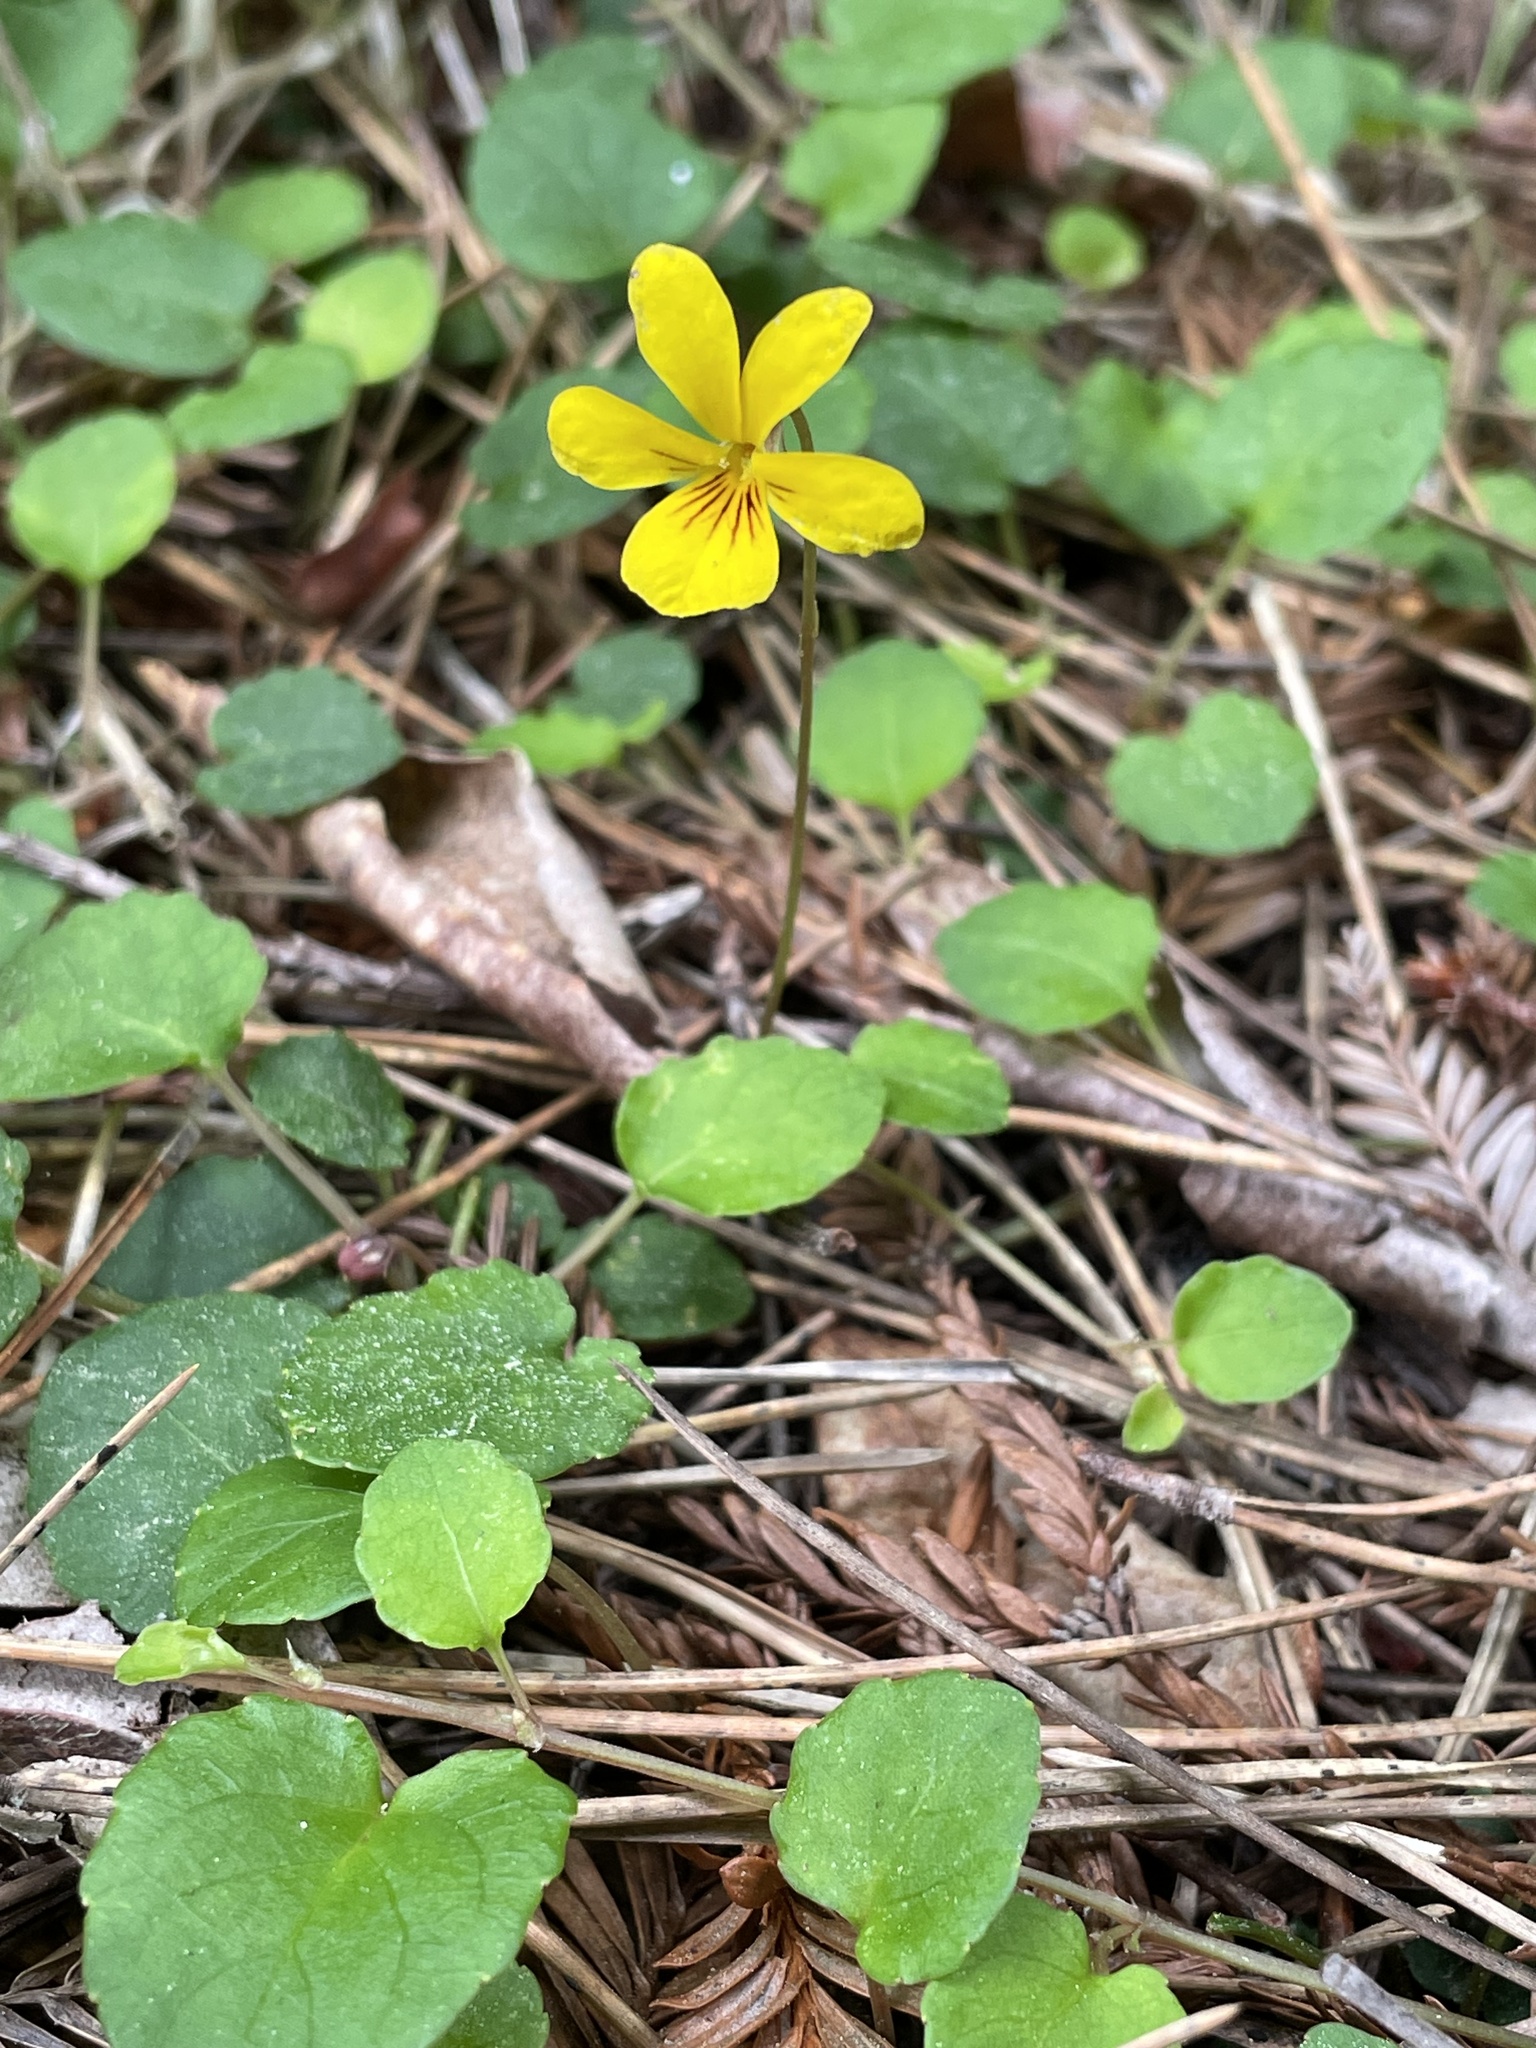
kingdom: Plantae
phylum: Tracheophyta
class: Magnoliopsida
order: Malpighiales
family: Violaceae
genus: Viola
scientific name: Viola sempervirens
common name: Evergreen violet
